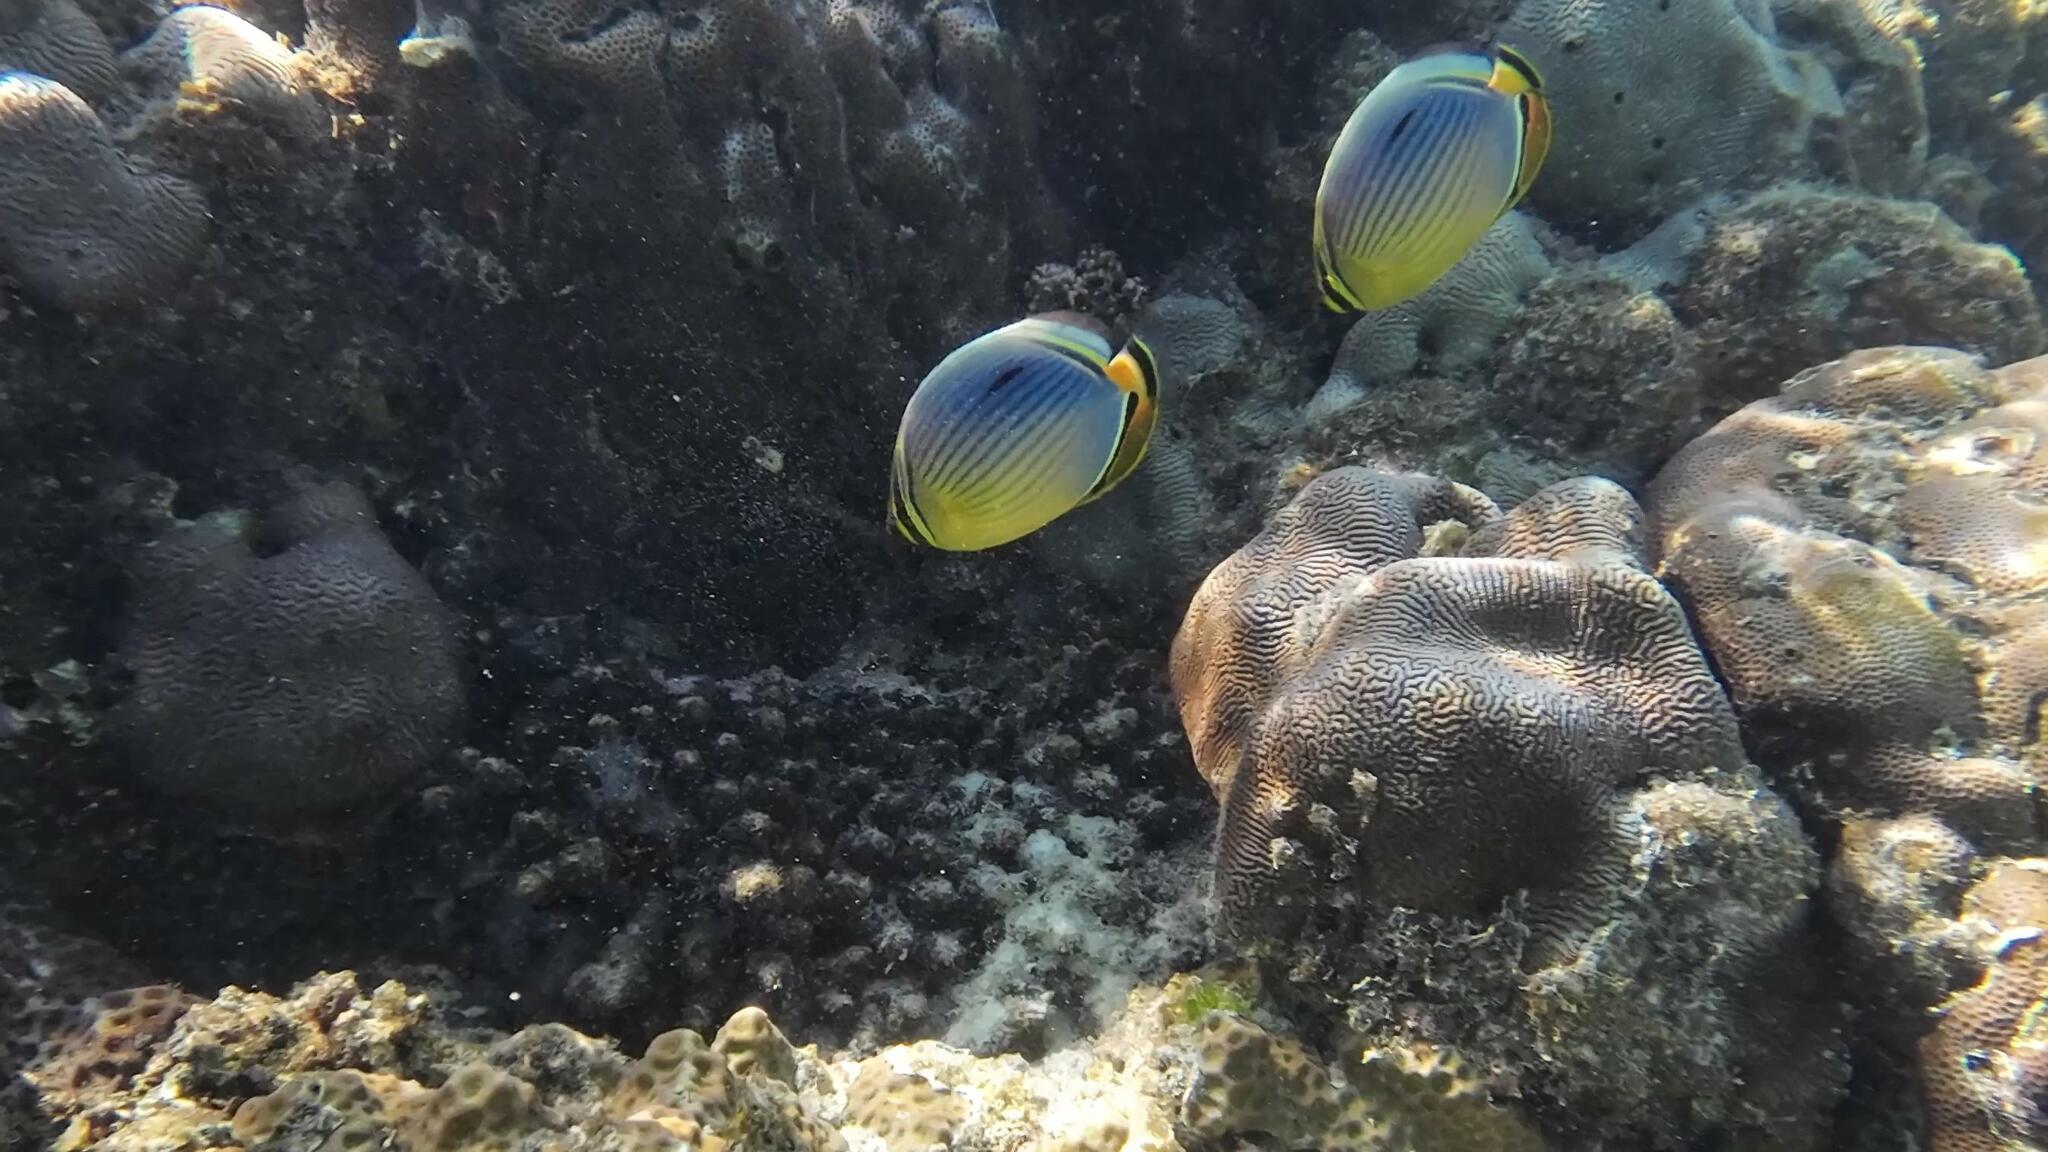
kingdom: Animalia
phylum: Chordata
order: Perciformes
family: Chaetodontidae
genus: Chaetodon
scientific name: Chaetodon trifasciatus
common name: Redfin butterflyfish
